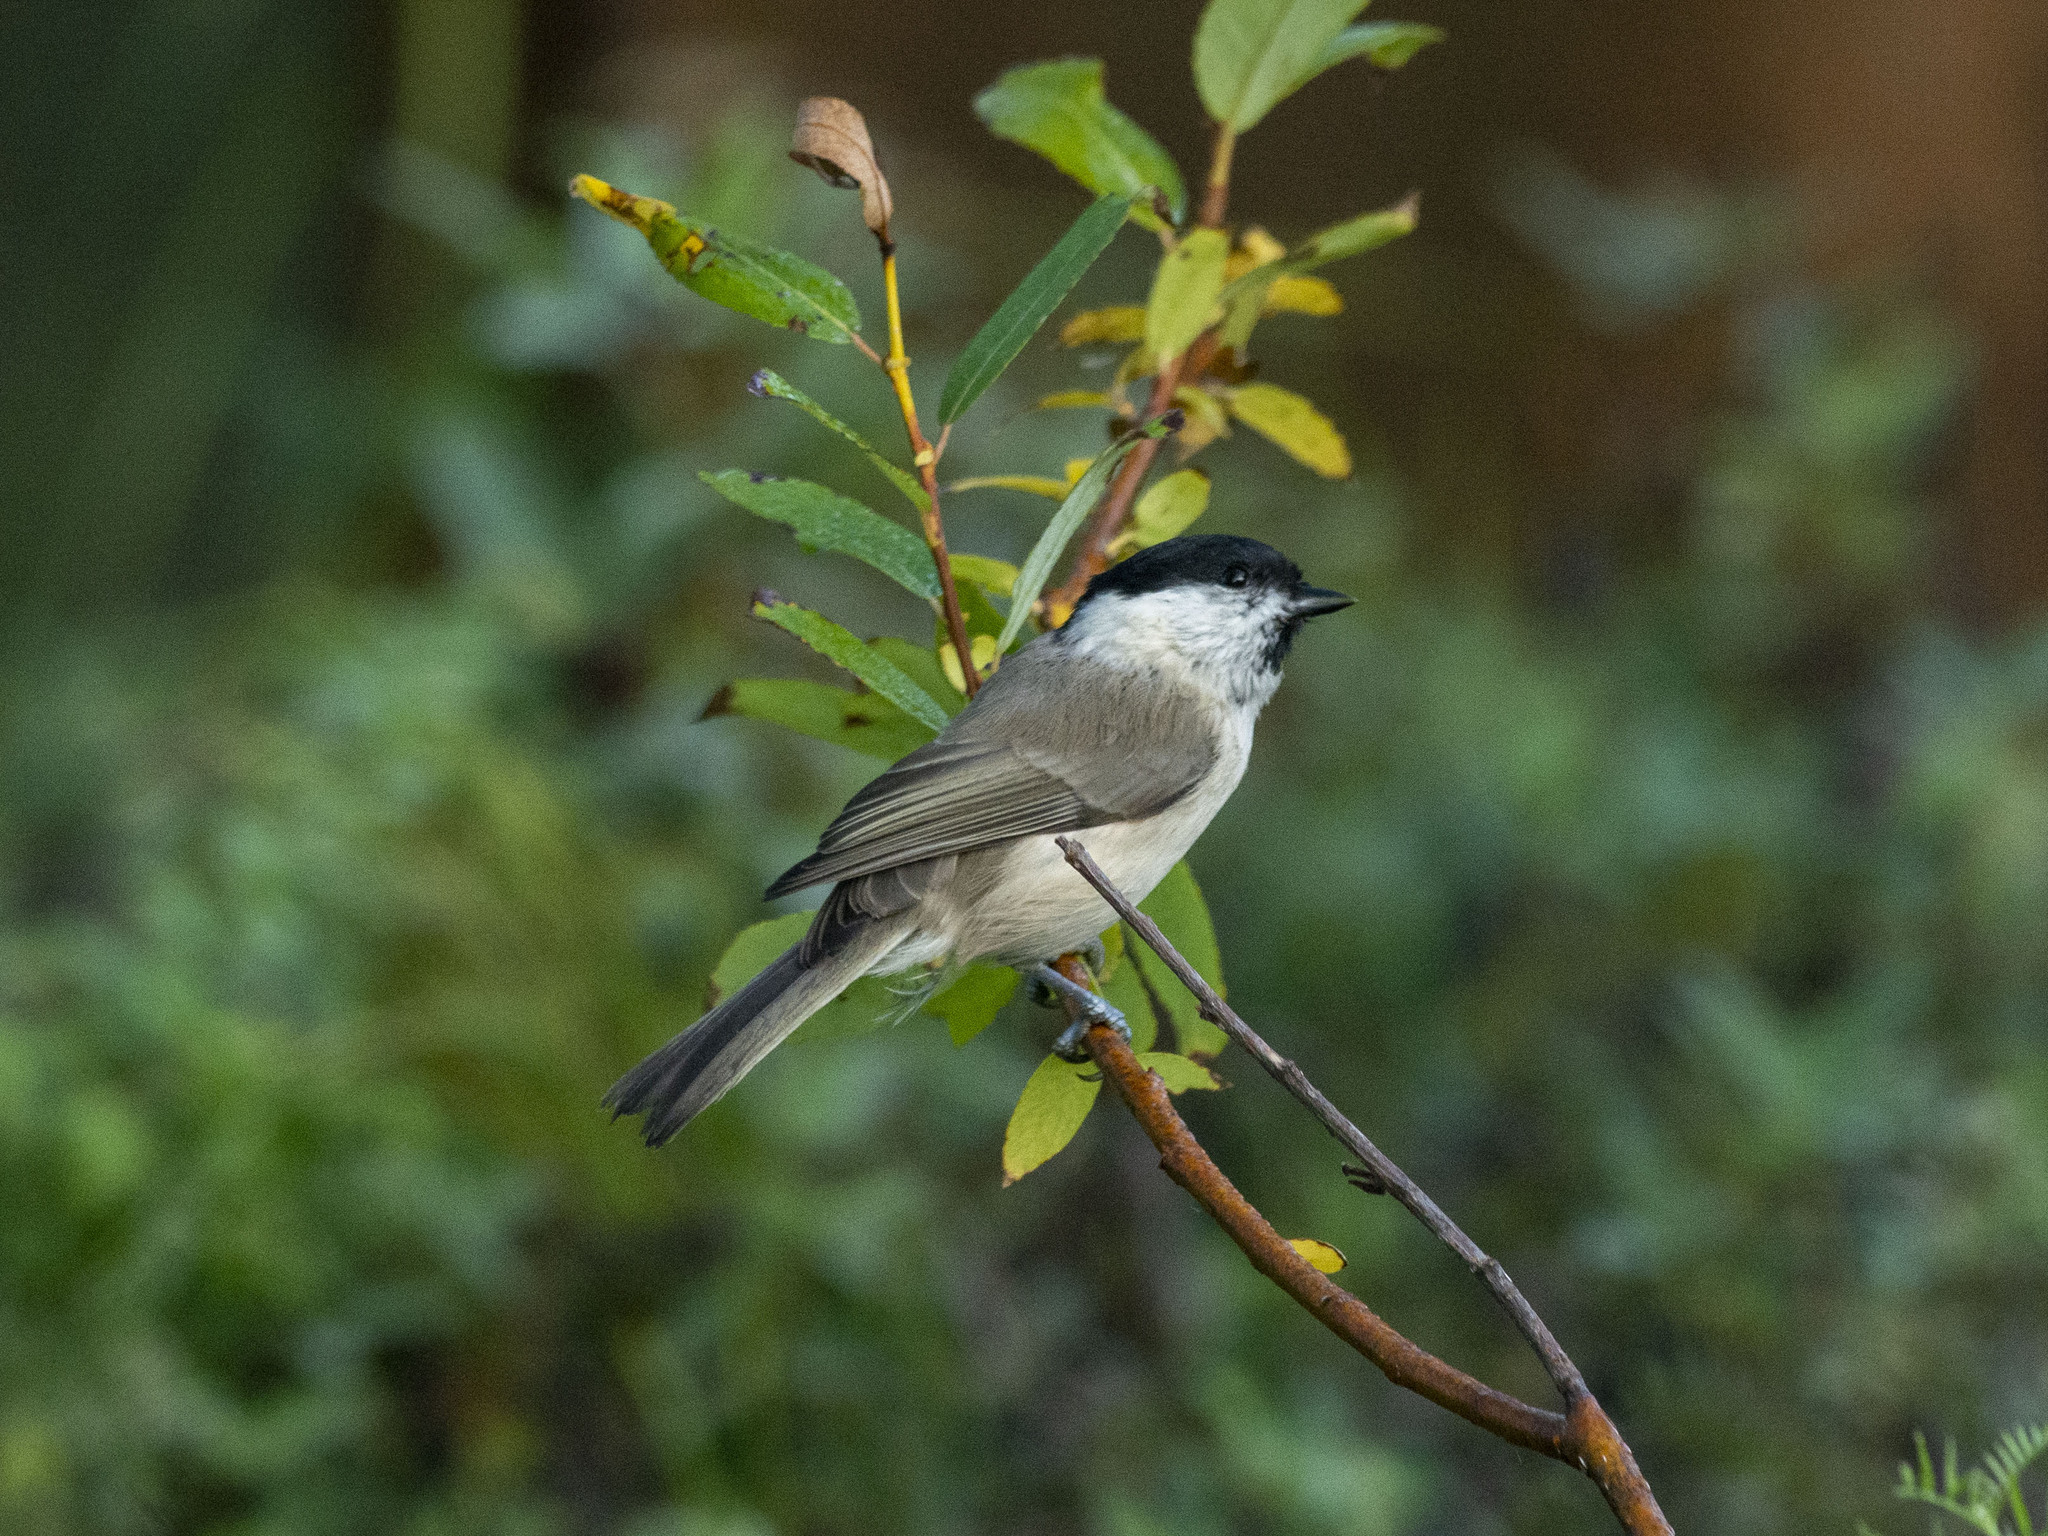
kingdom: Animalia
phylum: Chordata
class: Aves
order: Passeriformes
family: Paridae
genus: Poecile
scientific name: Poecile montanus
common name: Willow tit
